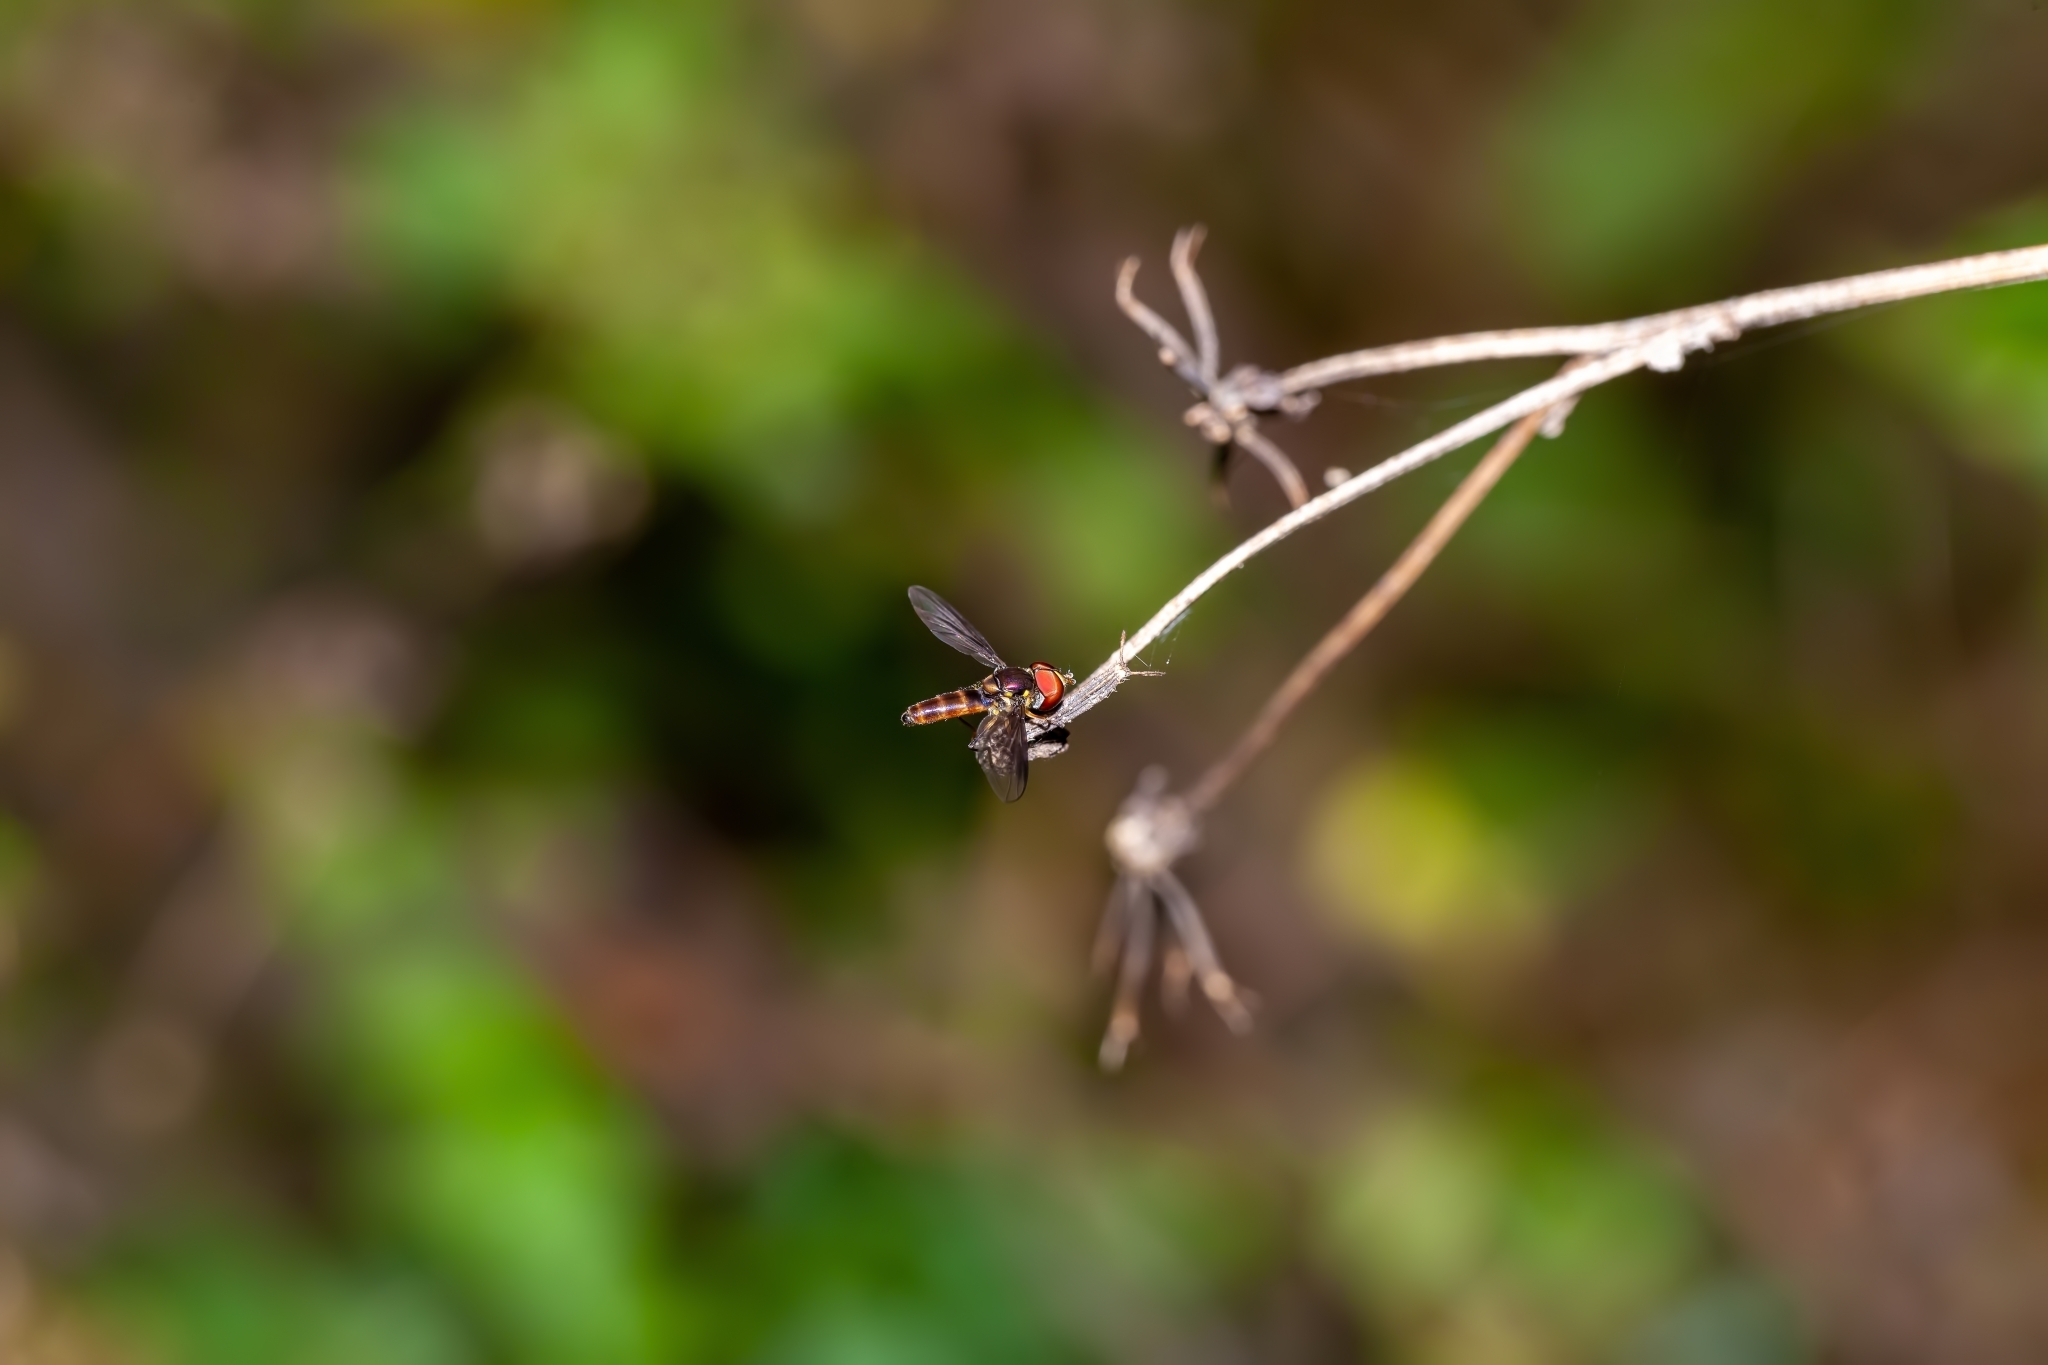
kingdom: Animalia
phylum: Arthropoda
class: Insecta
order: Diptera
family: Syrphidae
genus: Ocyptamus
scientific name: Ocyptamus antiphates
